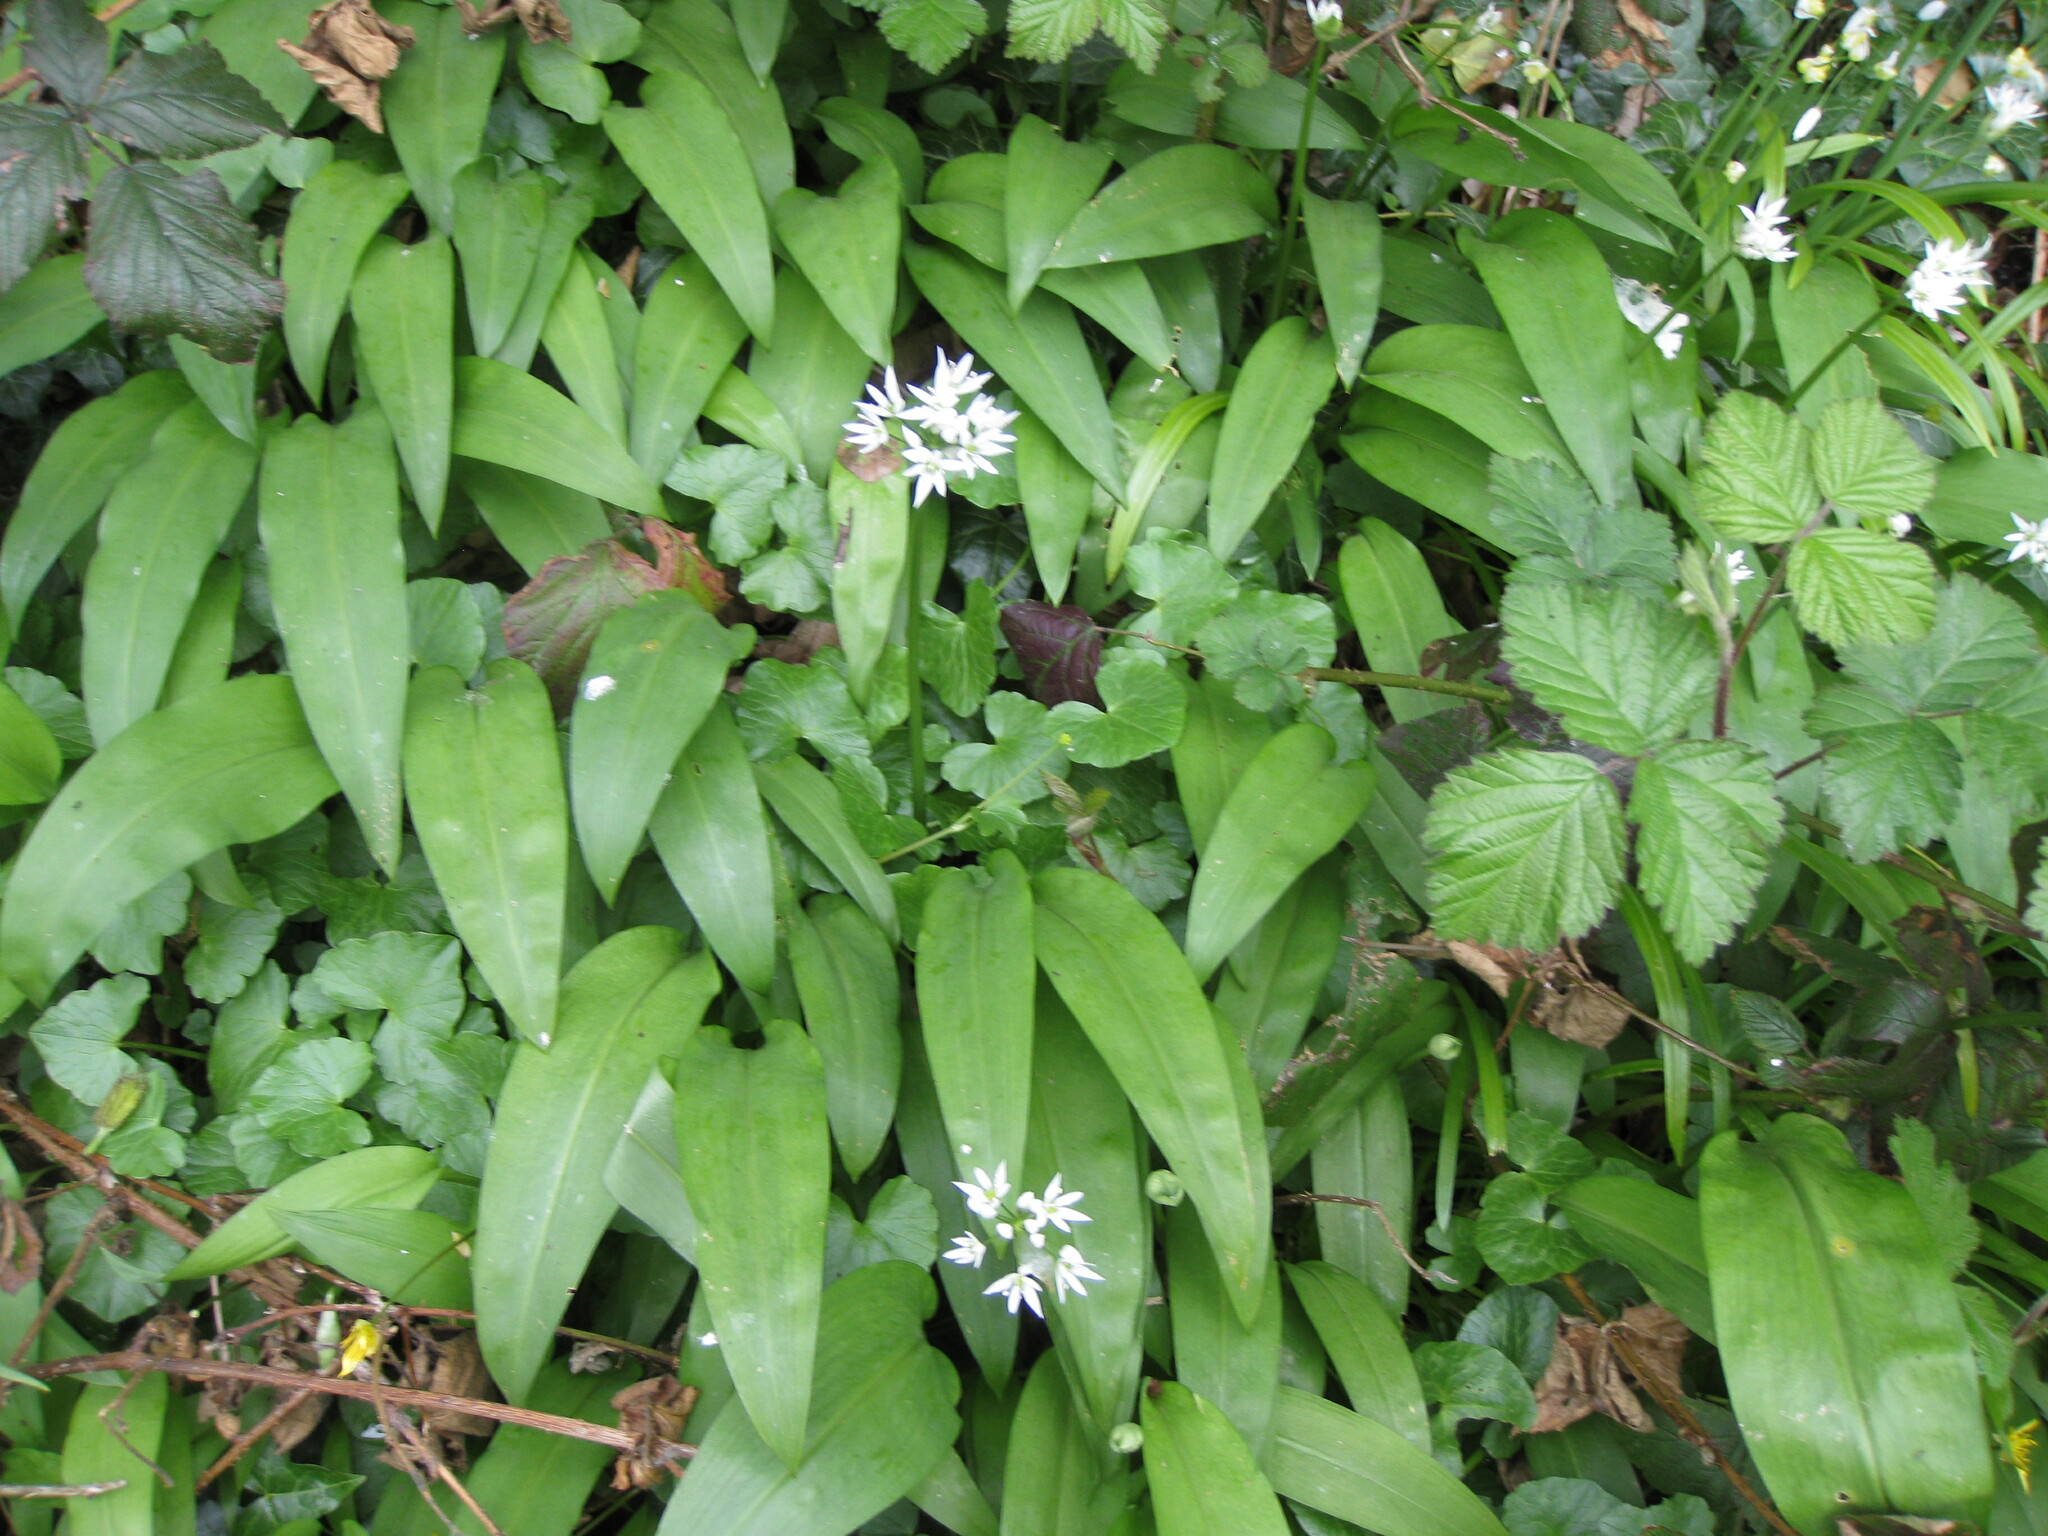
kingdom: Plantae
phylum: Tracheophyta
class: Liliopsida
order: Asparagales
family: Amaryllidaceae
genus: Allium
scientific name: Allium ursinum
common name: Ramsons
